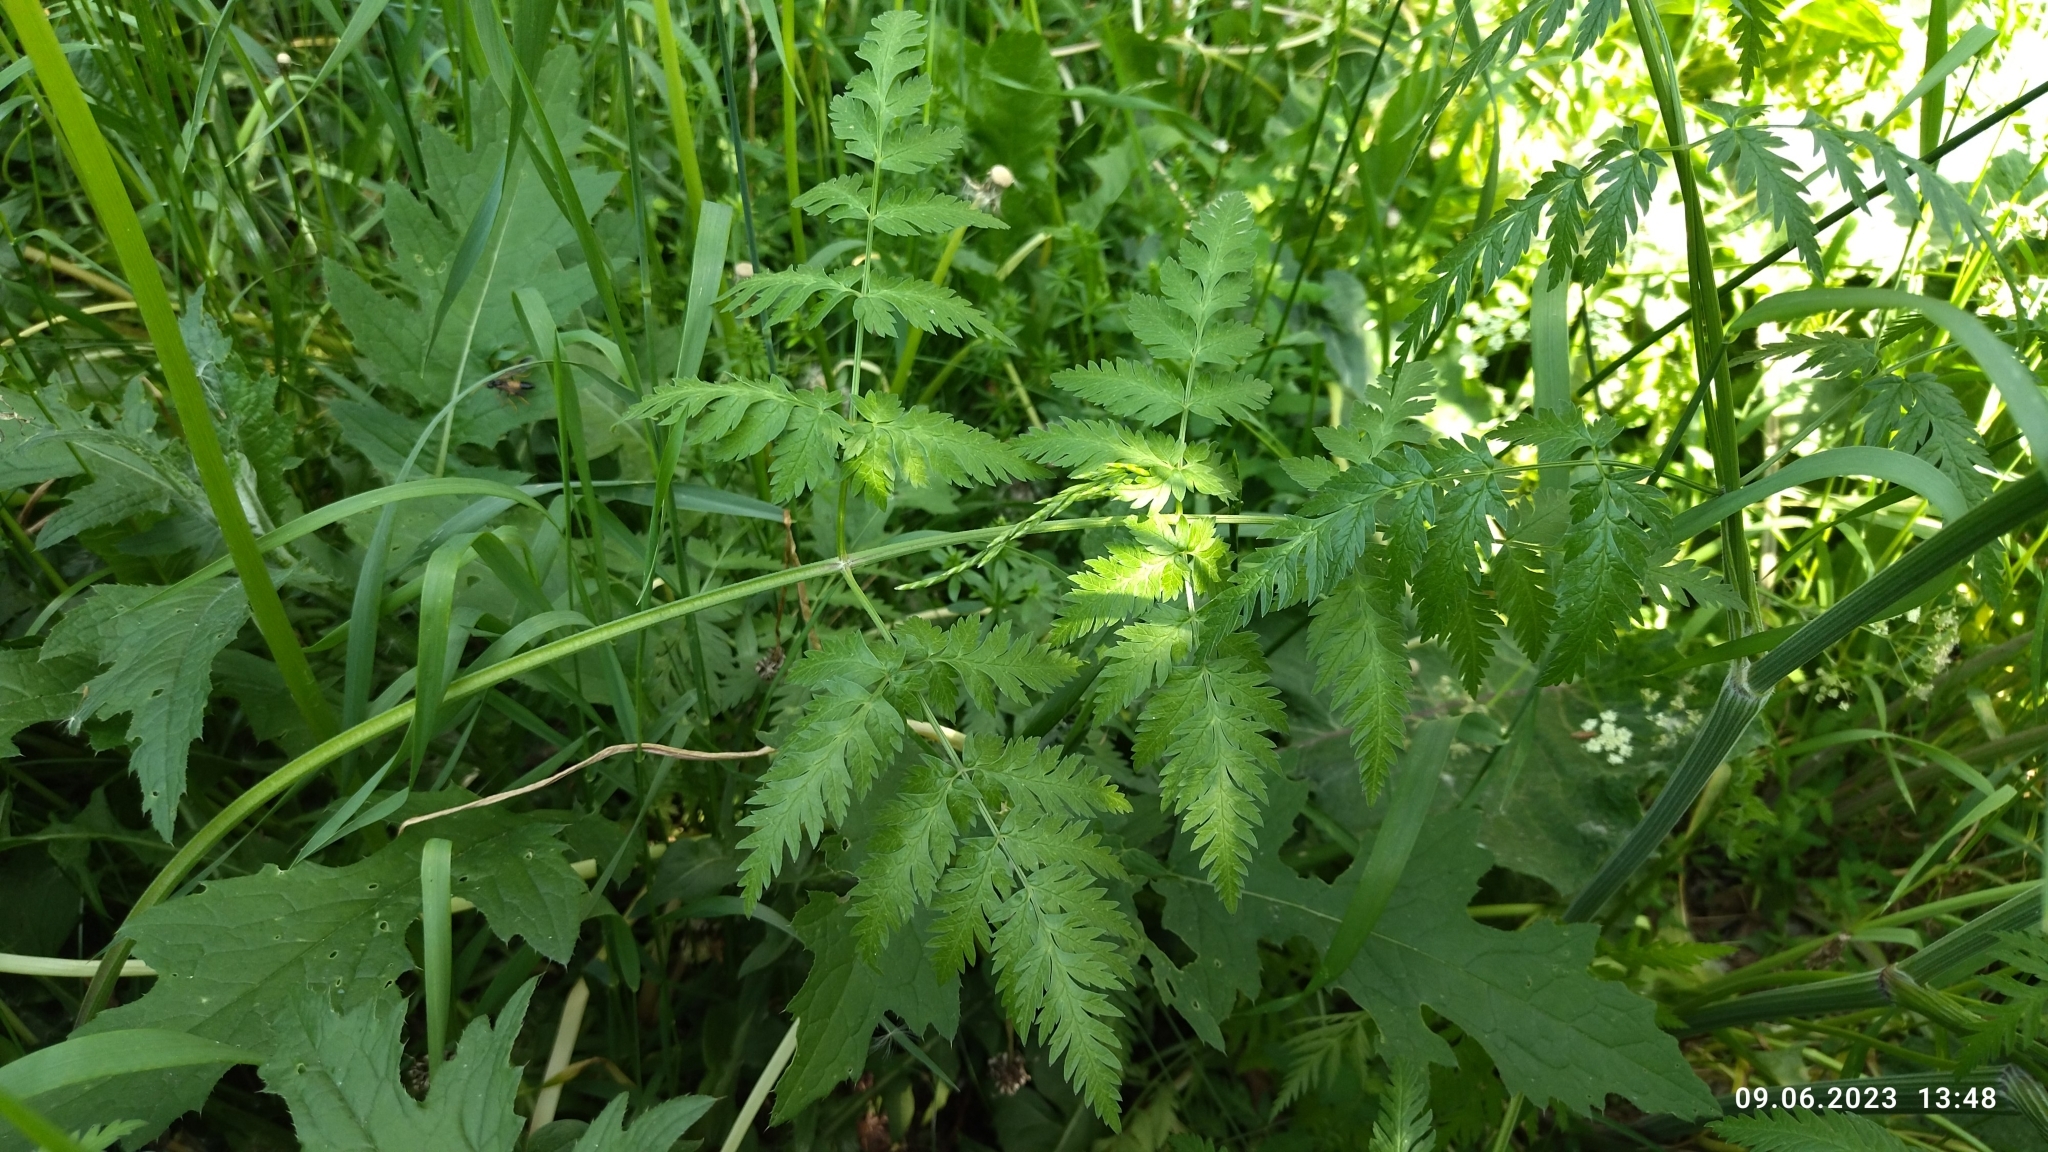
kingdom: Plantae
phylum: Tracheophyta
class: Magnoliopsida
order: Apiales
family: Apiaceae
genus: Anthriscus
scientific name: Anthriscus sylvestris
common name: Cow parsley
